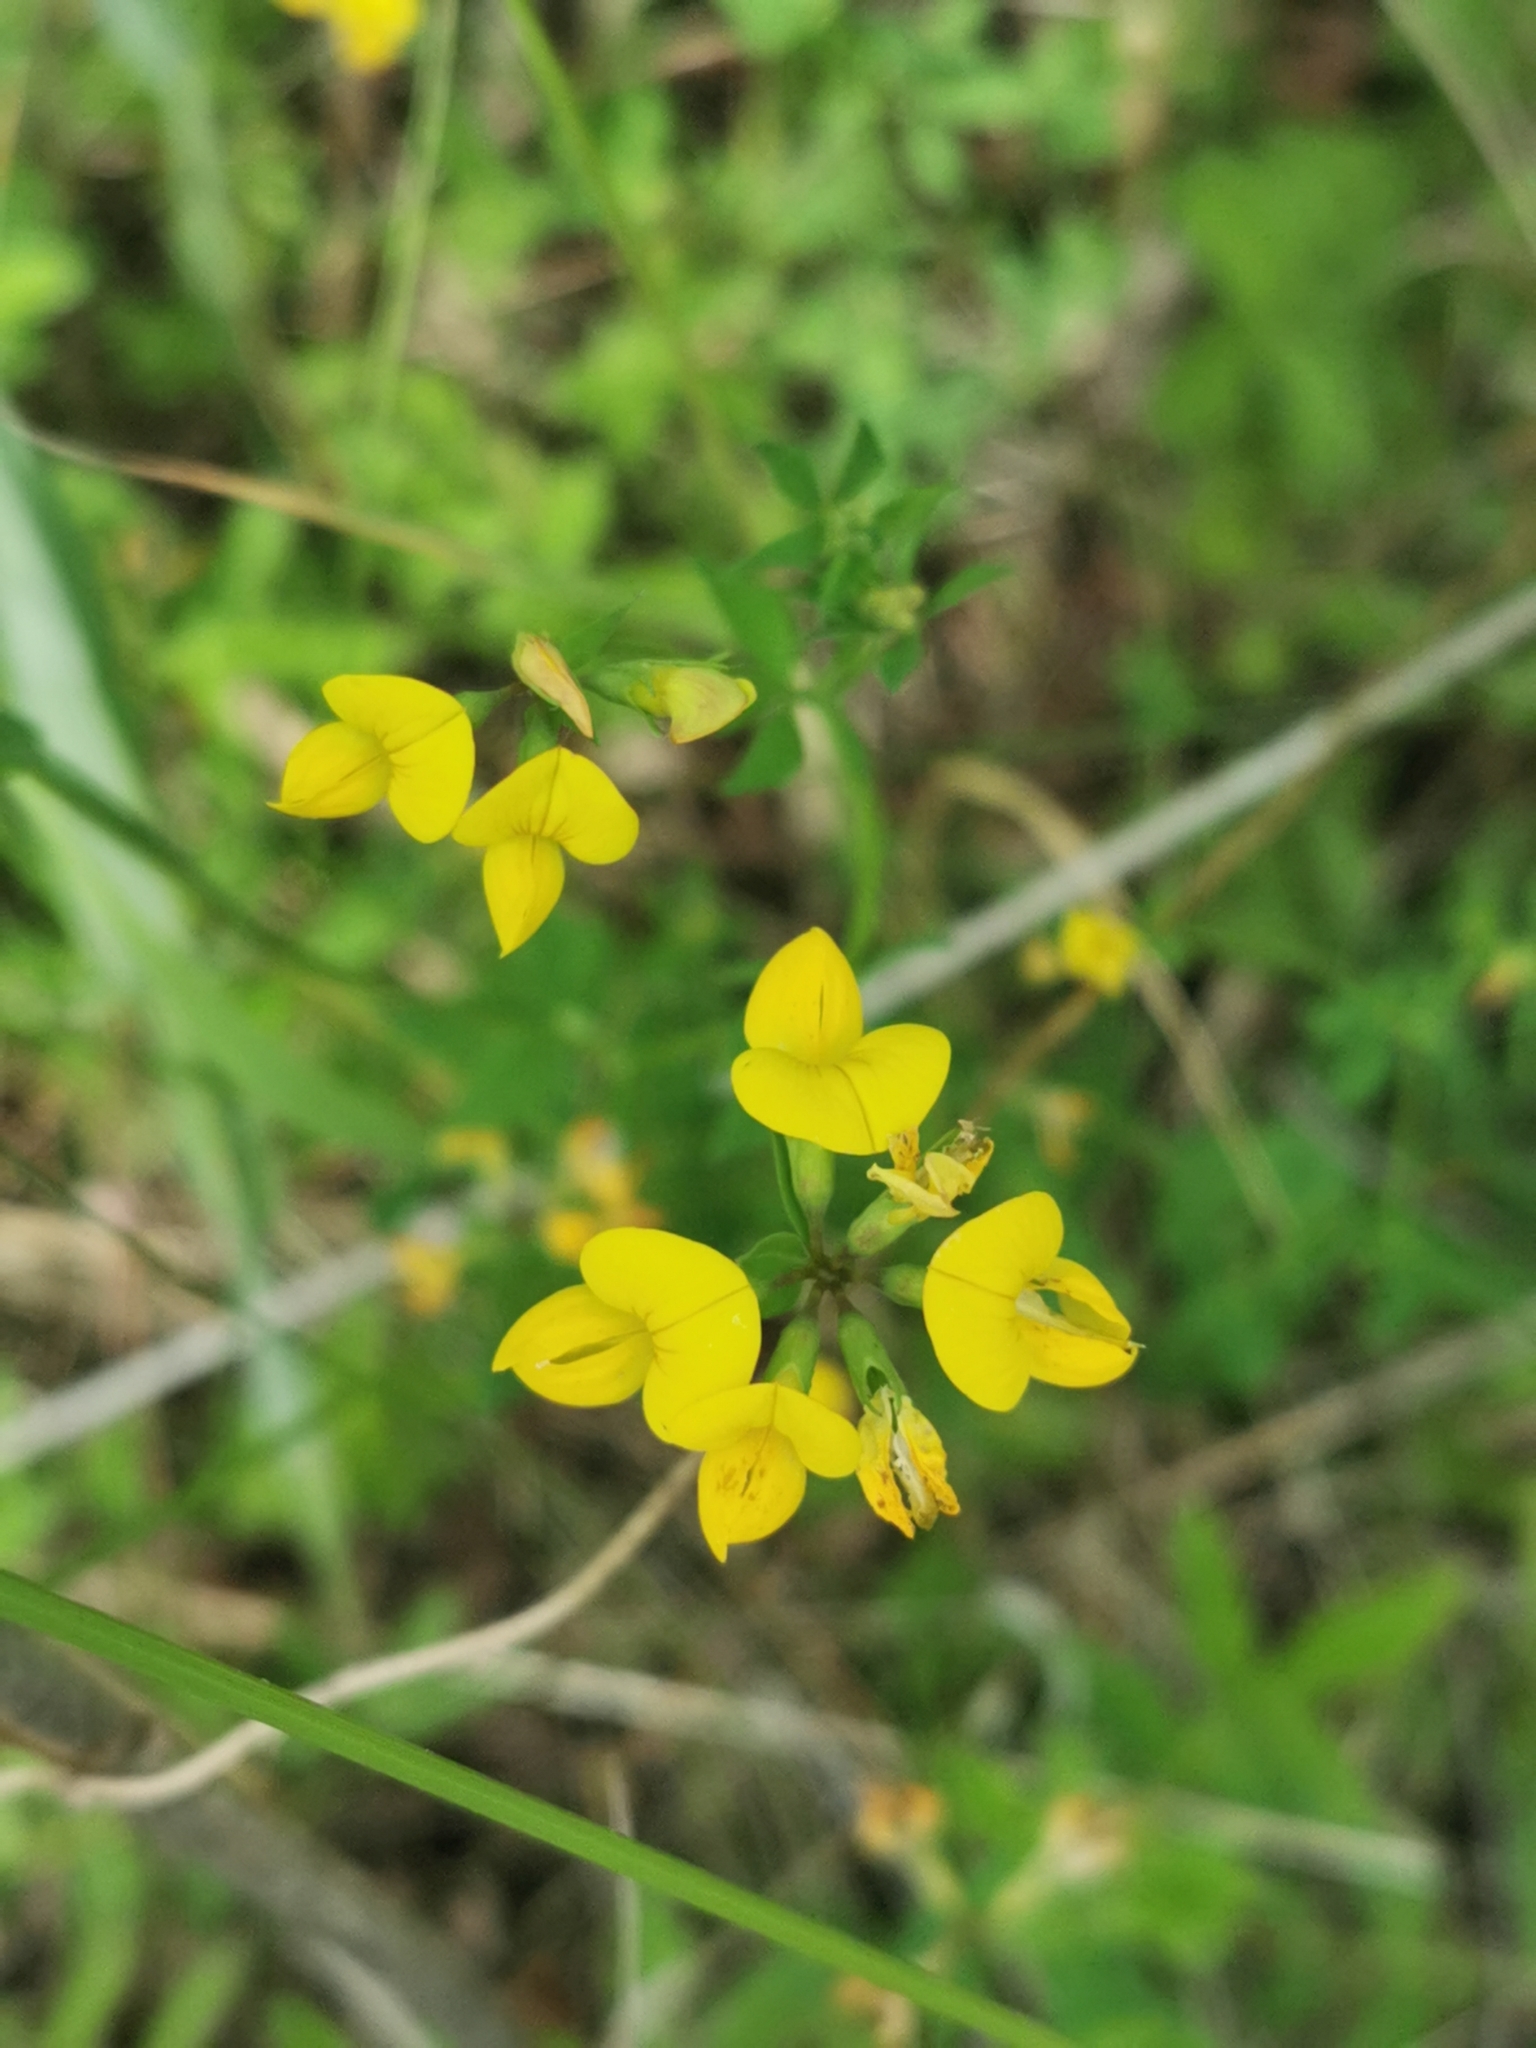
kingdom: Plantae
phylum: Tracheophyta
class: Magnoliopsida
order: Fabales
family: Fabaceae
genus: Lotus
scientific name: Lotus corniculatus
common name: Common bird's-foot-trefoil
